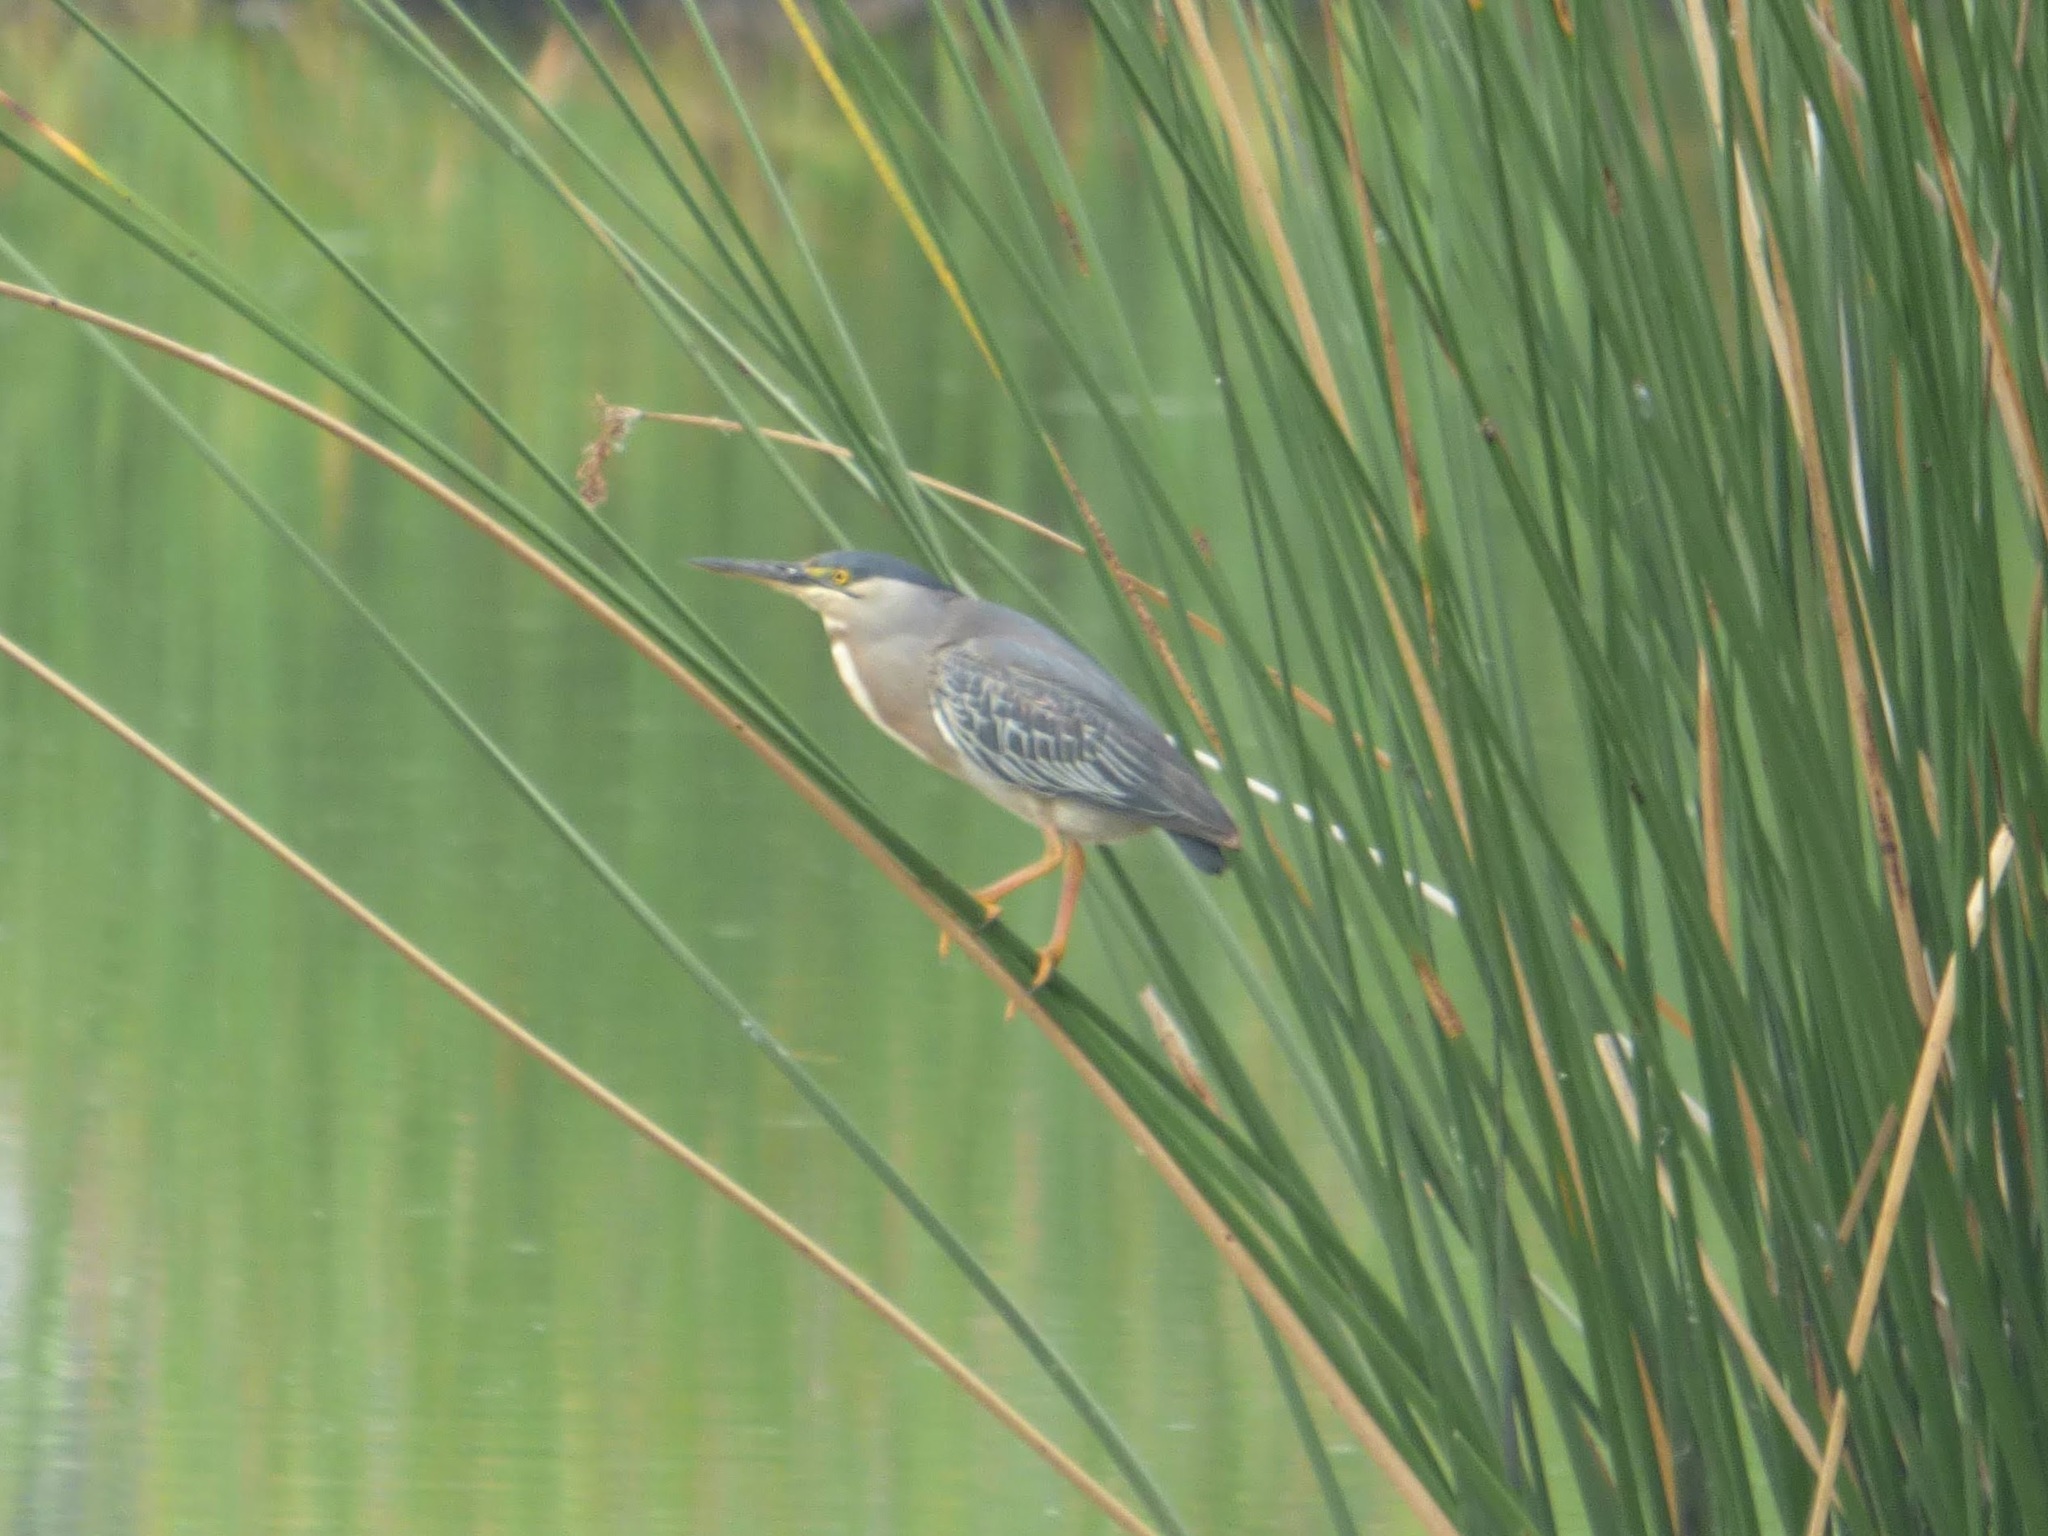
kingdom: Animalia
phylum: Chordata
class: Aves
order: Pelecaniformes
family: Ardeidae
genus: Butorides
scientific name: Butorides striata
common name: Striated heron
